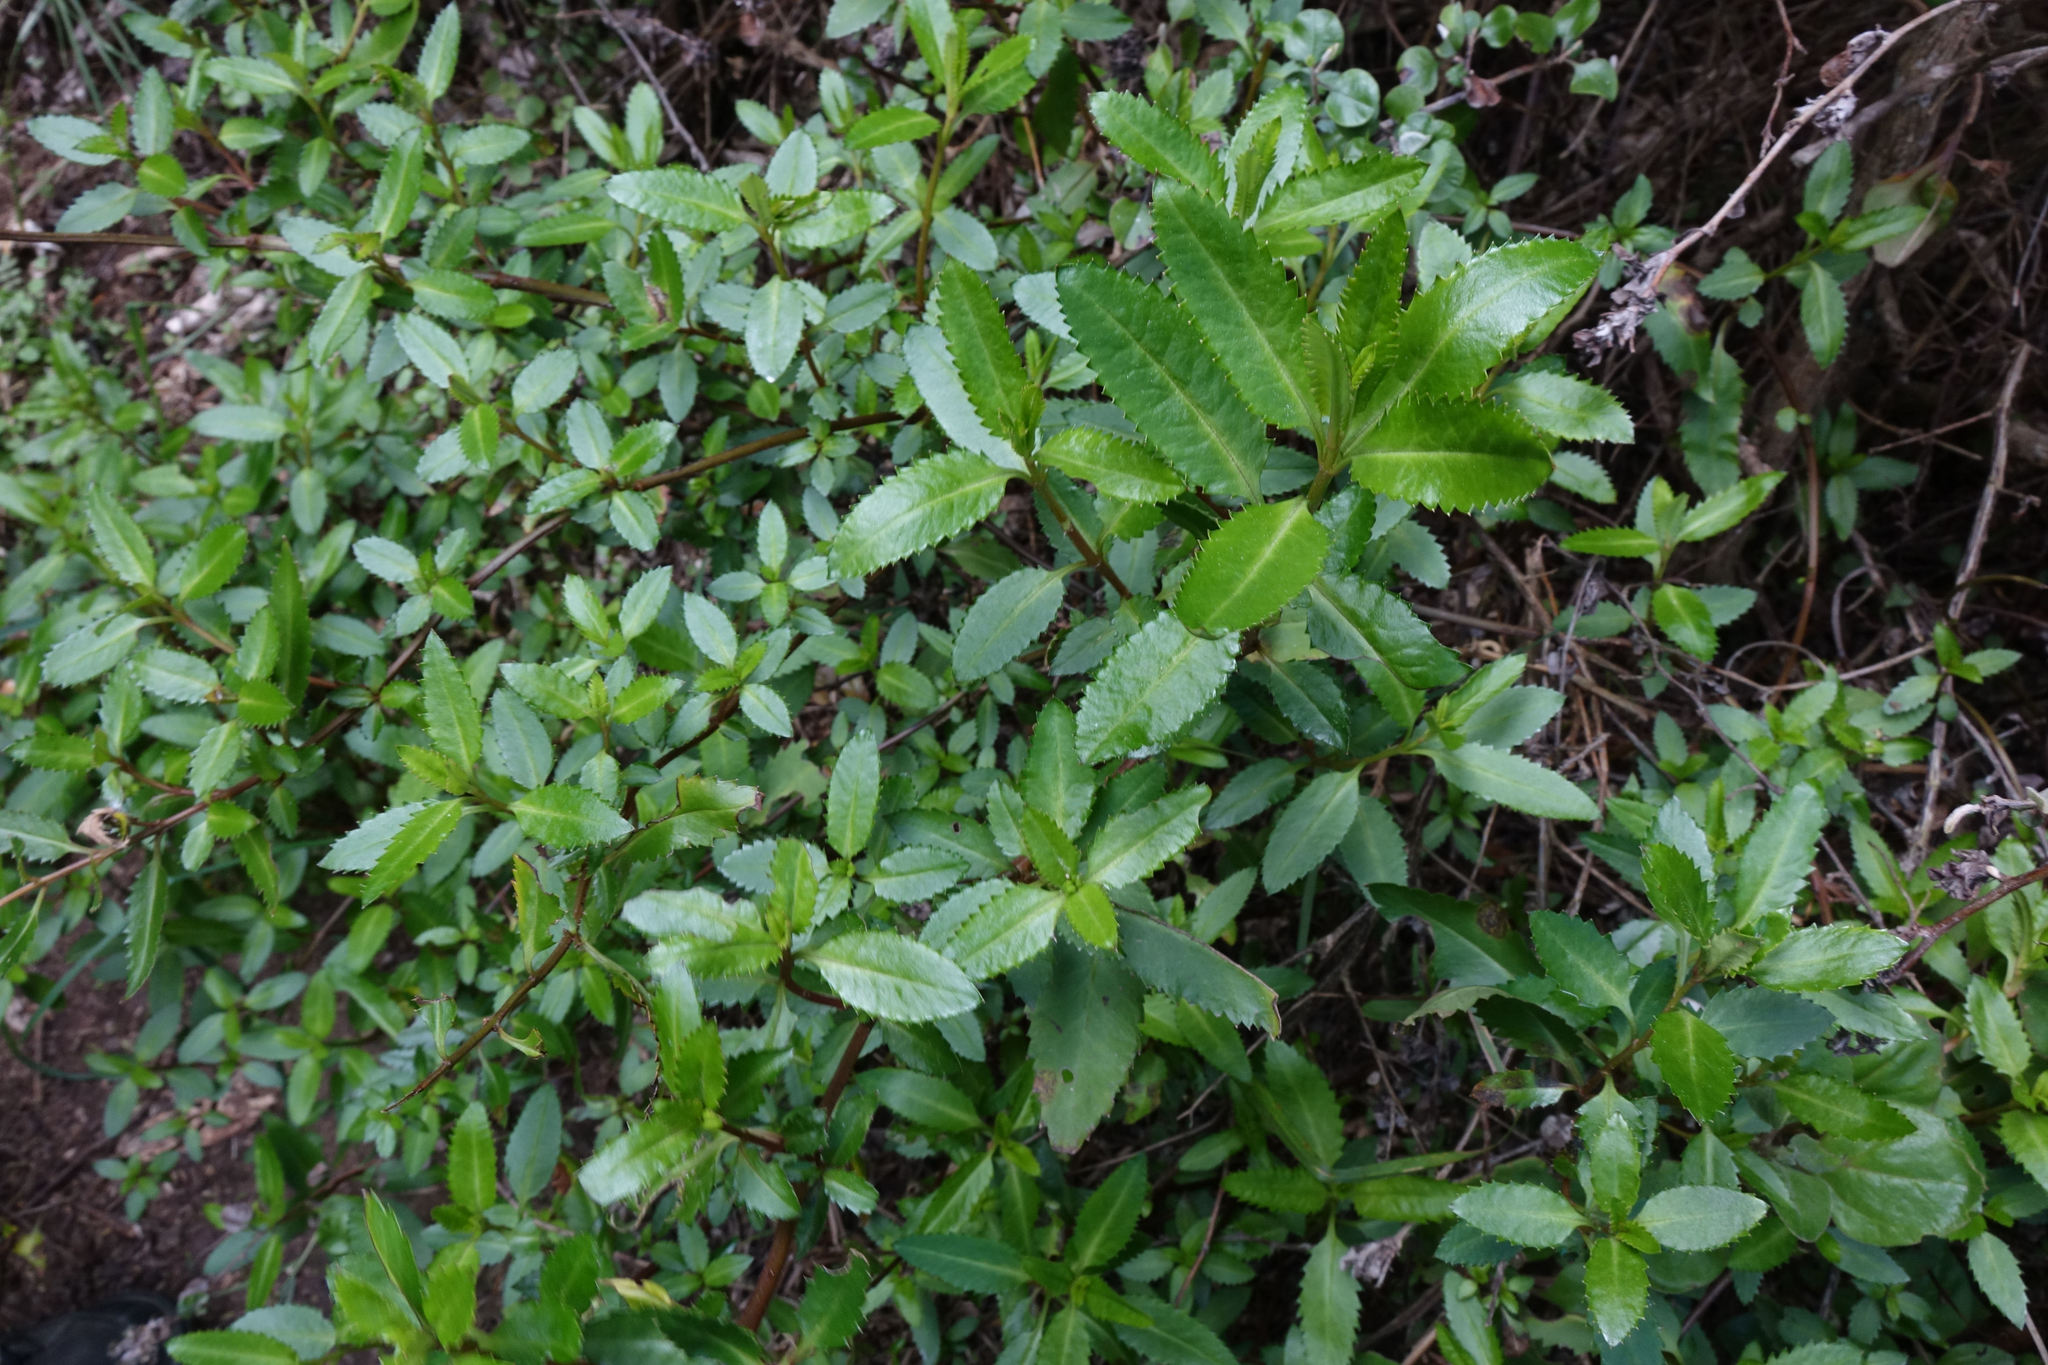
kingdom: Plantae
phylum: Tracheophyta
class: Magnoliopsida
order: Saxifragales
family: Haloragaceae
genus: Haloragis
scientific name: Haloragis erecta
